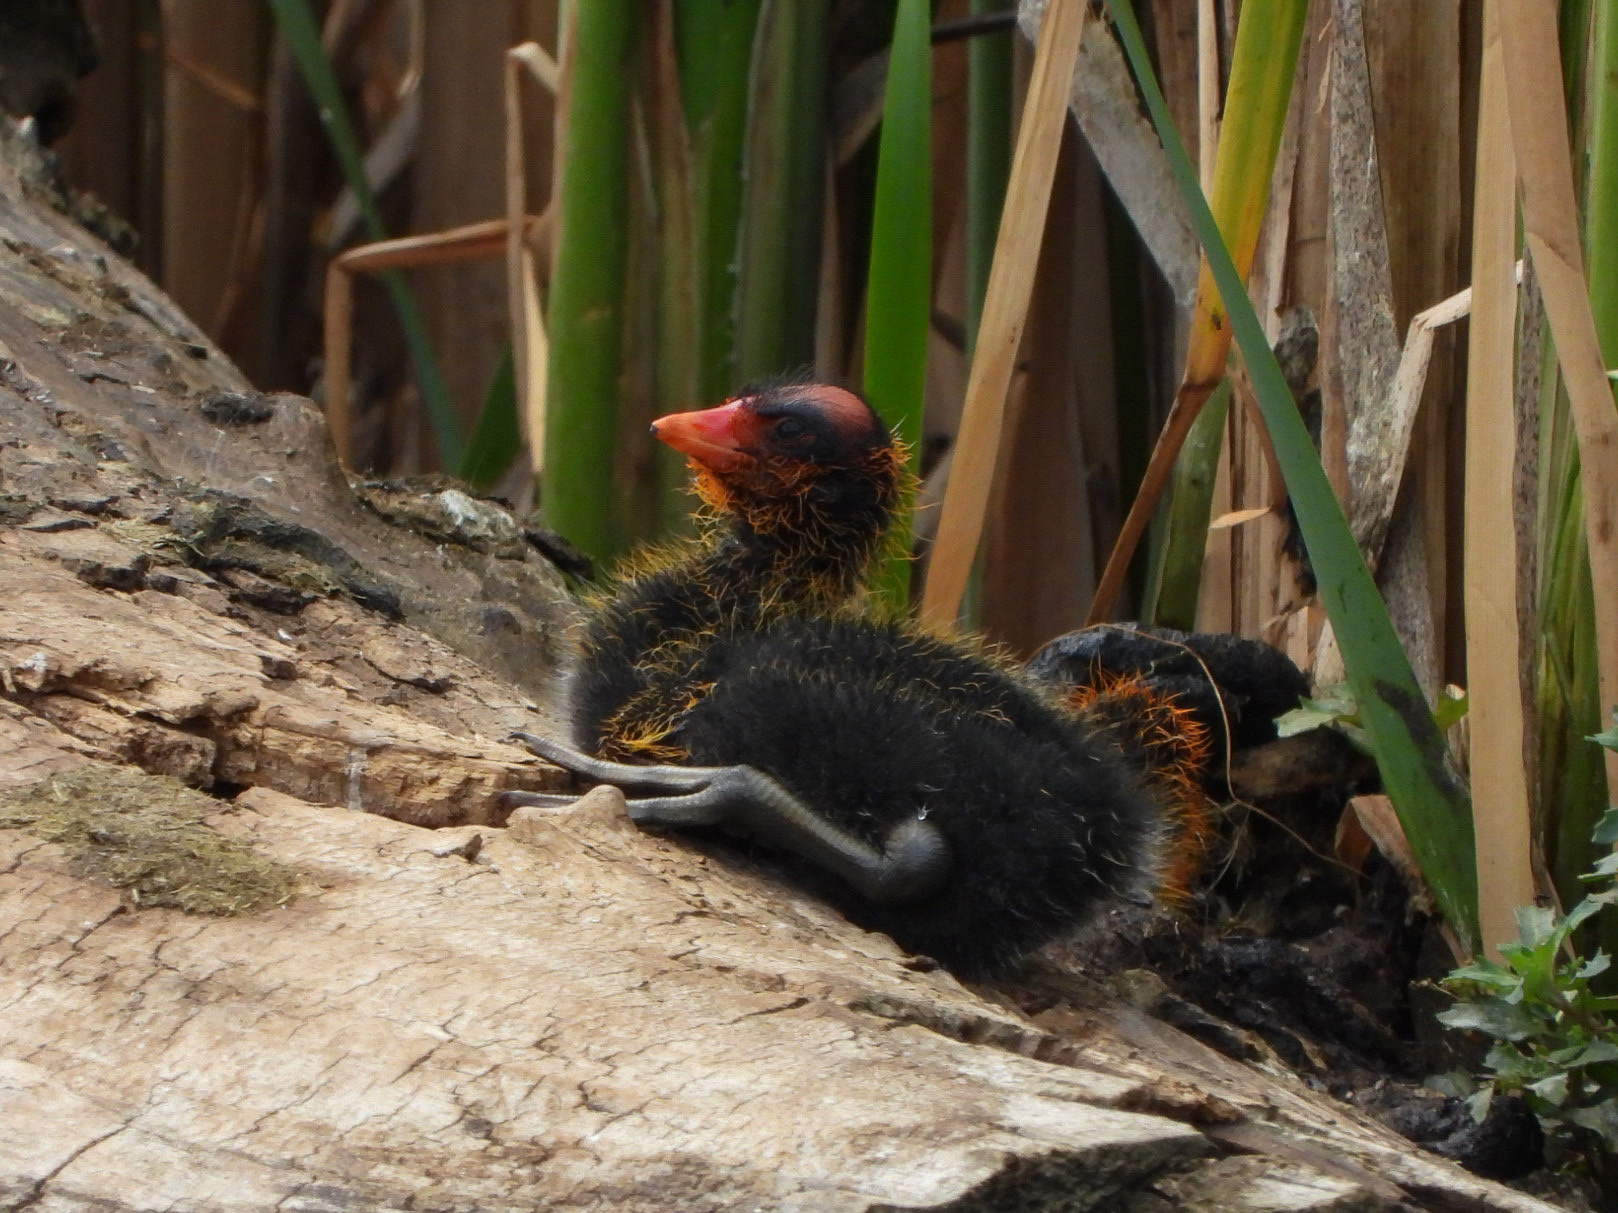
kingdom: Animalia
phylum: Chordata
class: Aves
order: Gruiformes
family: Rallidae
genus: Fulica
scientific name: Fulica americana
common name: American coot
